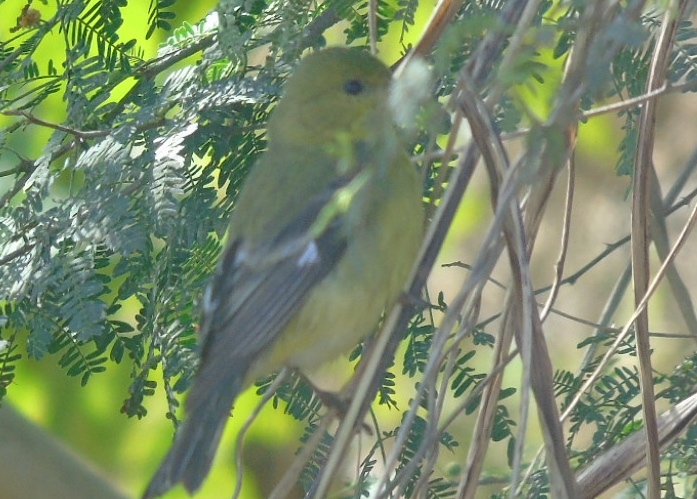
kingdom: Animalia
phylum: Chordata
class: Aves
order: Passeriformes
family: Fringillidae
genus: Spinus
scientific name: Spinus psaltria
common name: Lesser goldfinch
